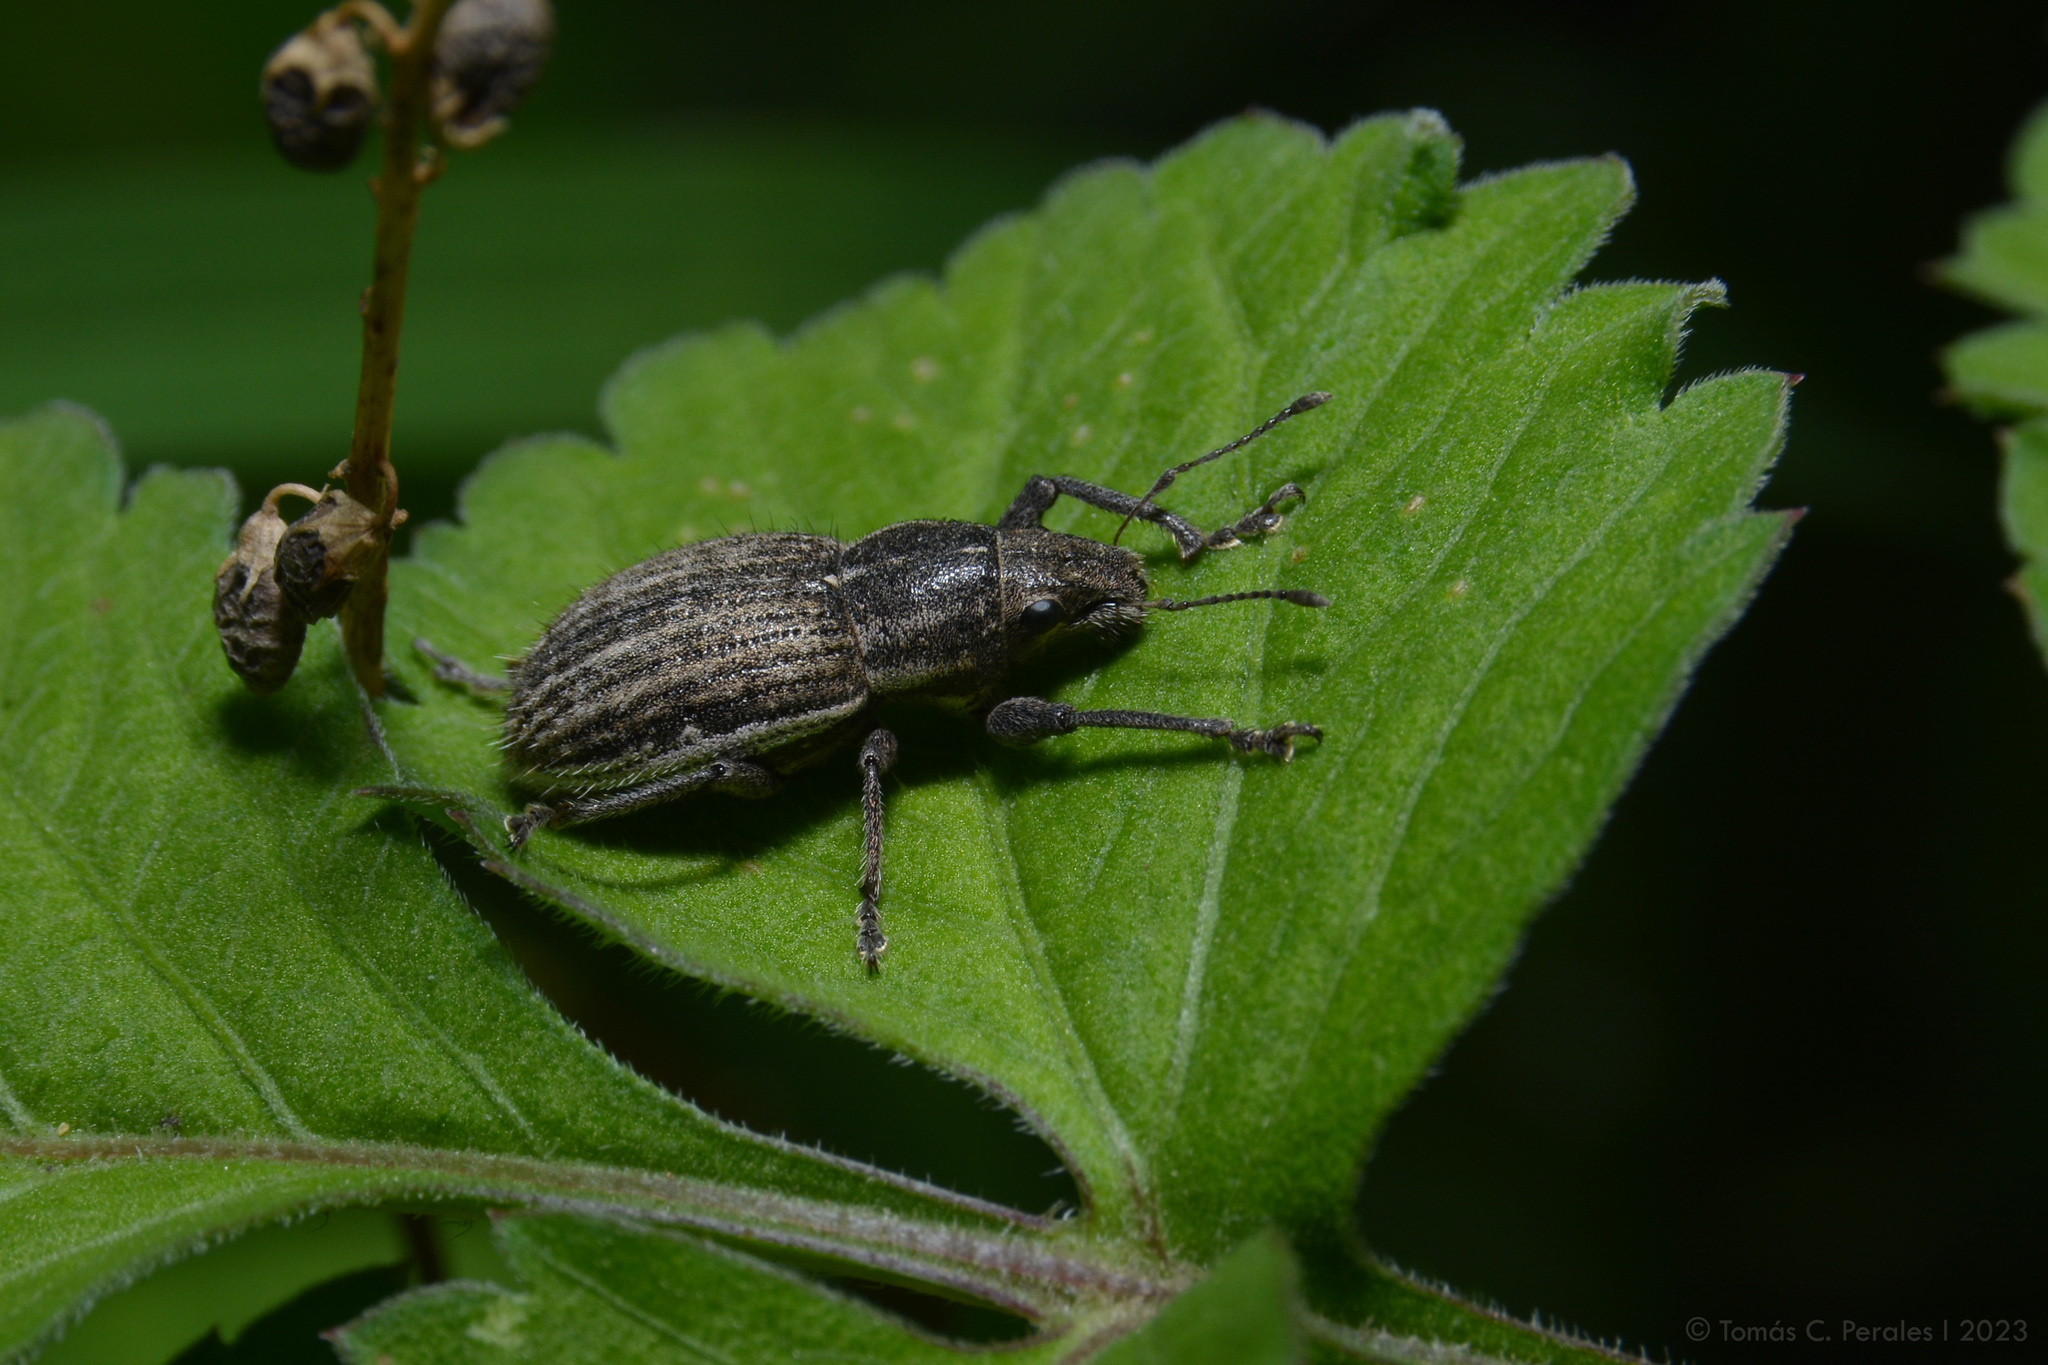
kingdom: Animalia
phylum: Arthropoda
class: Insecta
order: Coleoptera
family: Curculionidae
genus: Naupactus
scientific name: Naupactus leucoloma
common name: Whitefringed beetle
